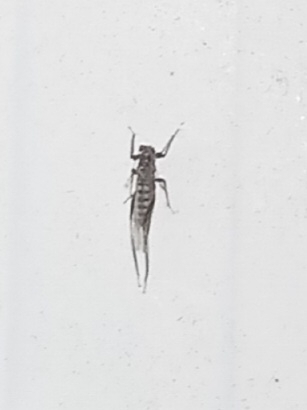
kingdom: Animalia
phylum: Arthropoda
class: Insecta
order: Hemiptera
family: Aphididae
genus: Eulachnus
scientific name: Eulachnus rileyi
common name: Active gray pine needle aphid
